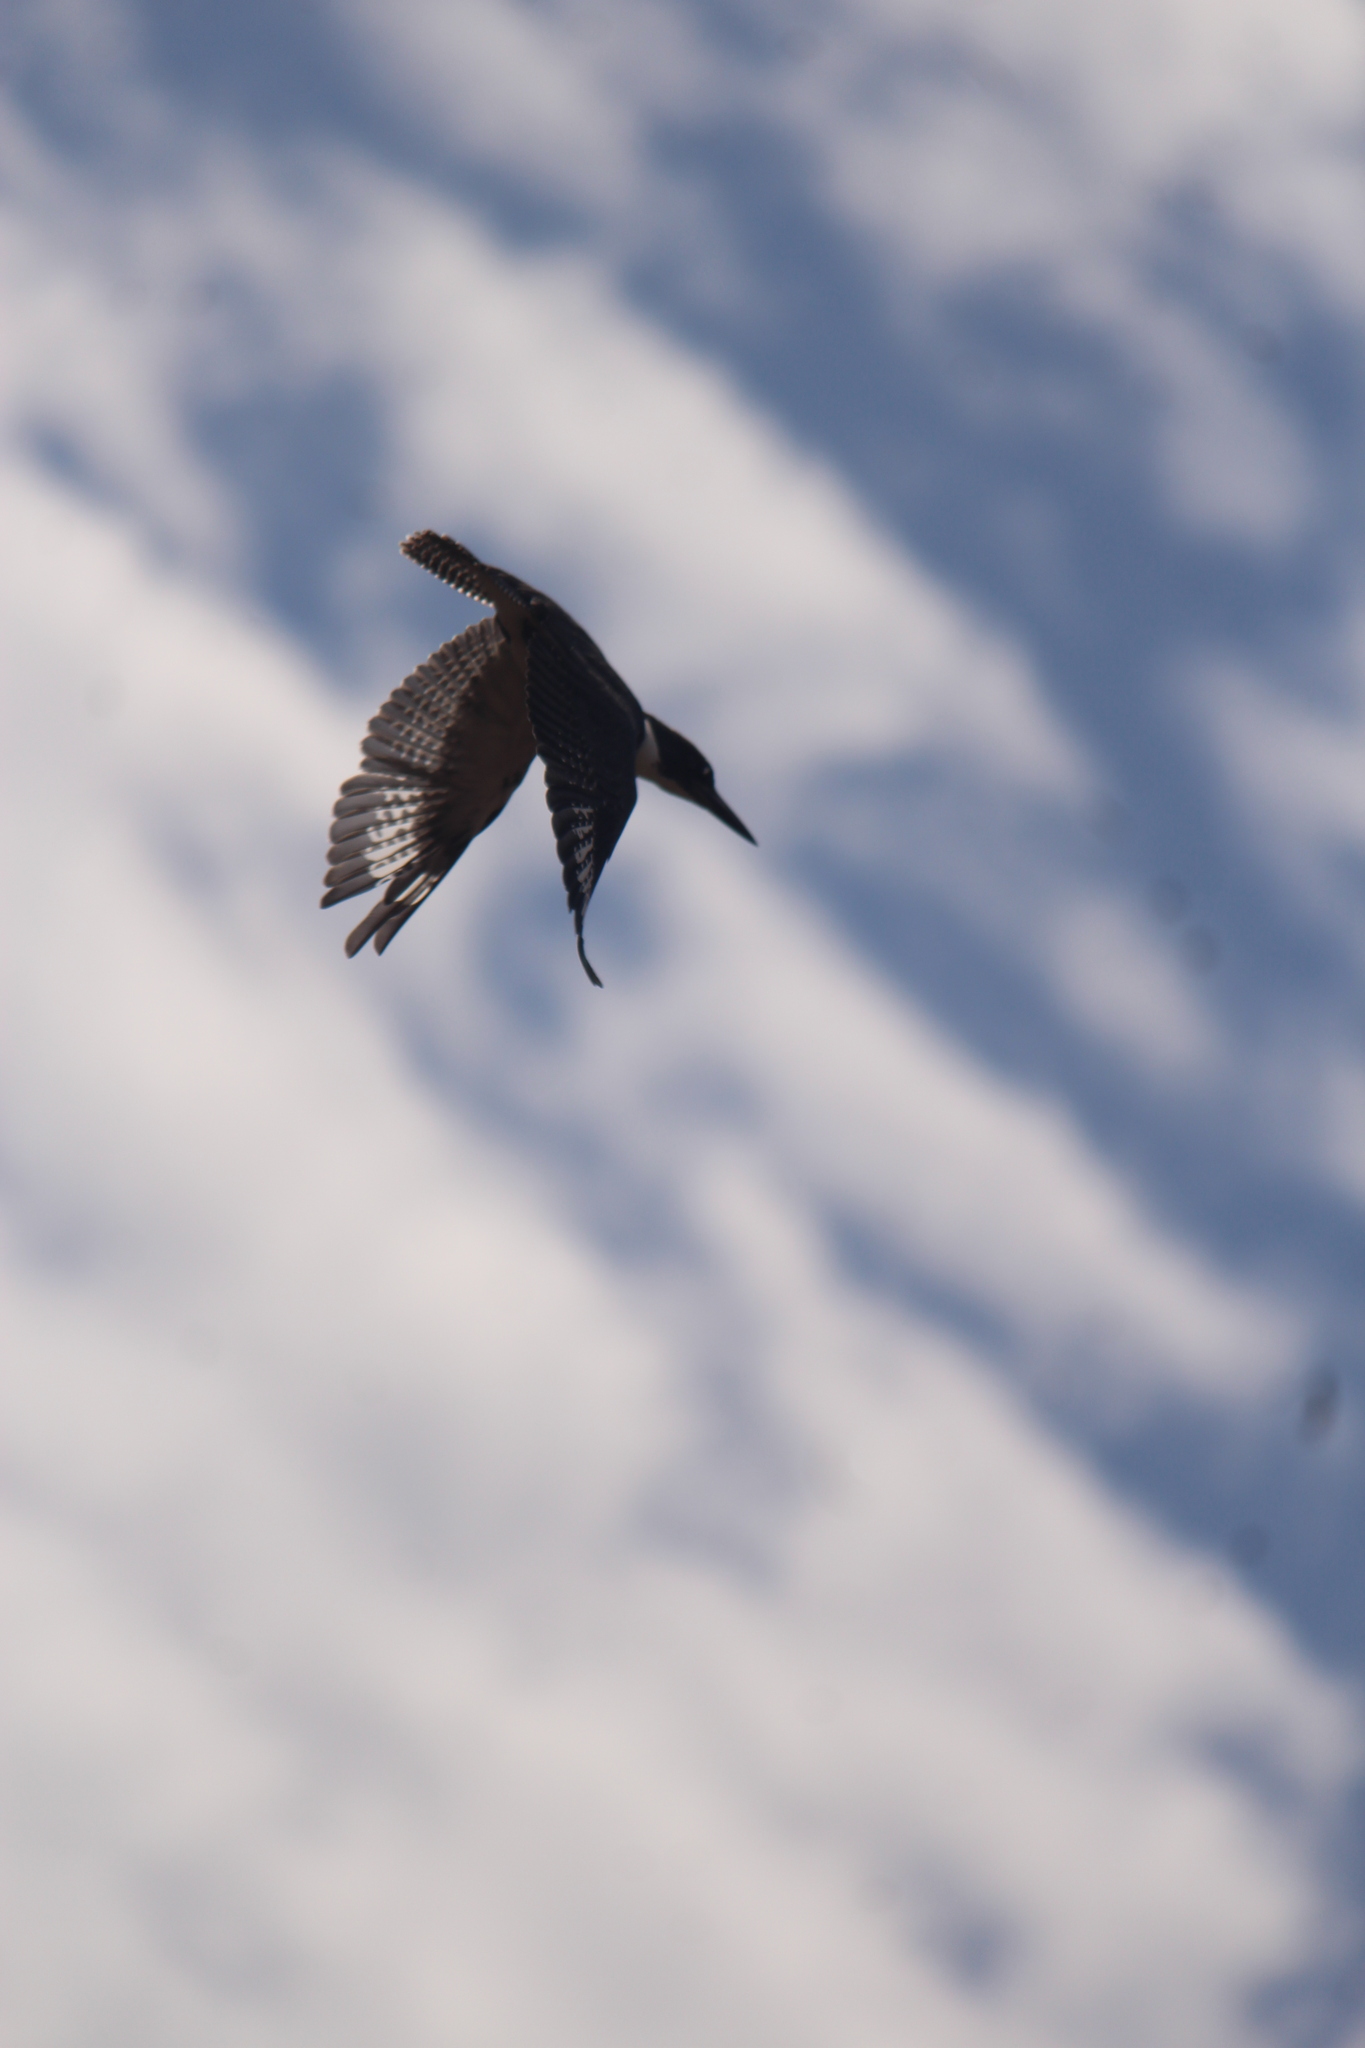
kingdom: Animalia
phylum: Chordata
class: Aves
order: Coraciiformes
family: Alcedinidae
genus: Megaceryle
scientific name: Megaceryle alcyon
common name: Belted kingfisher
